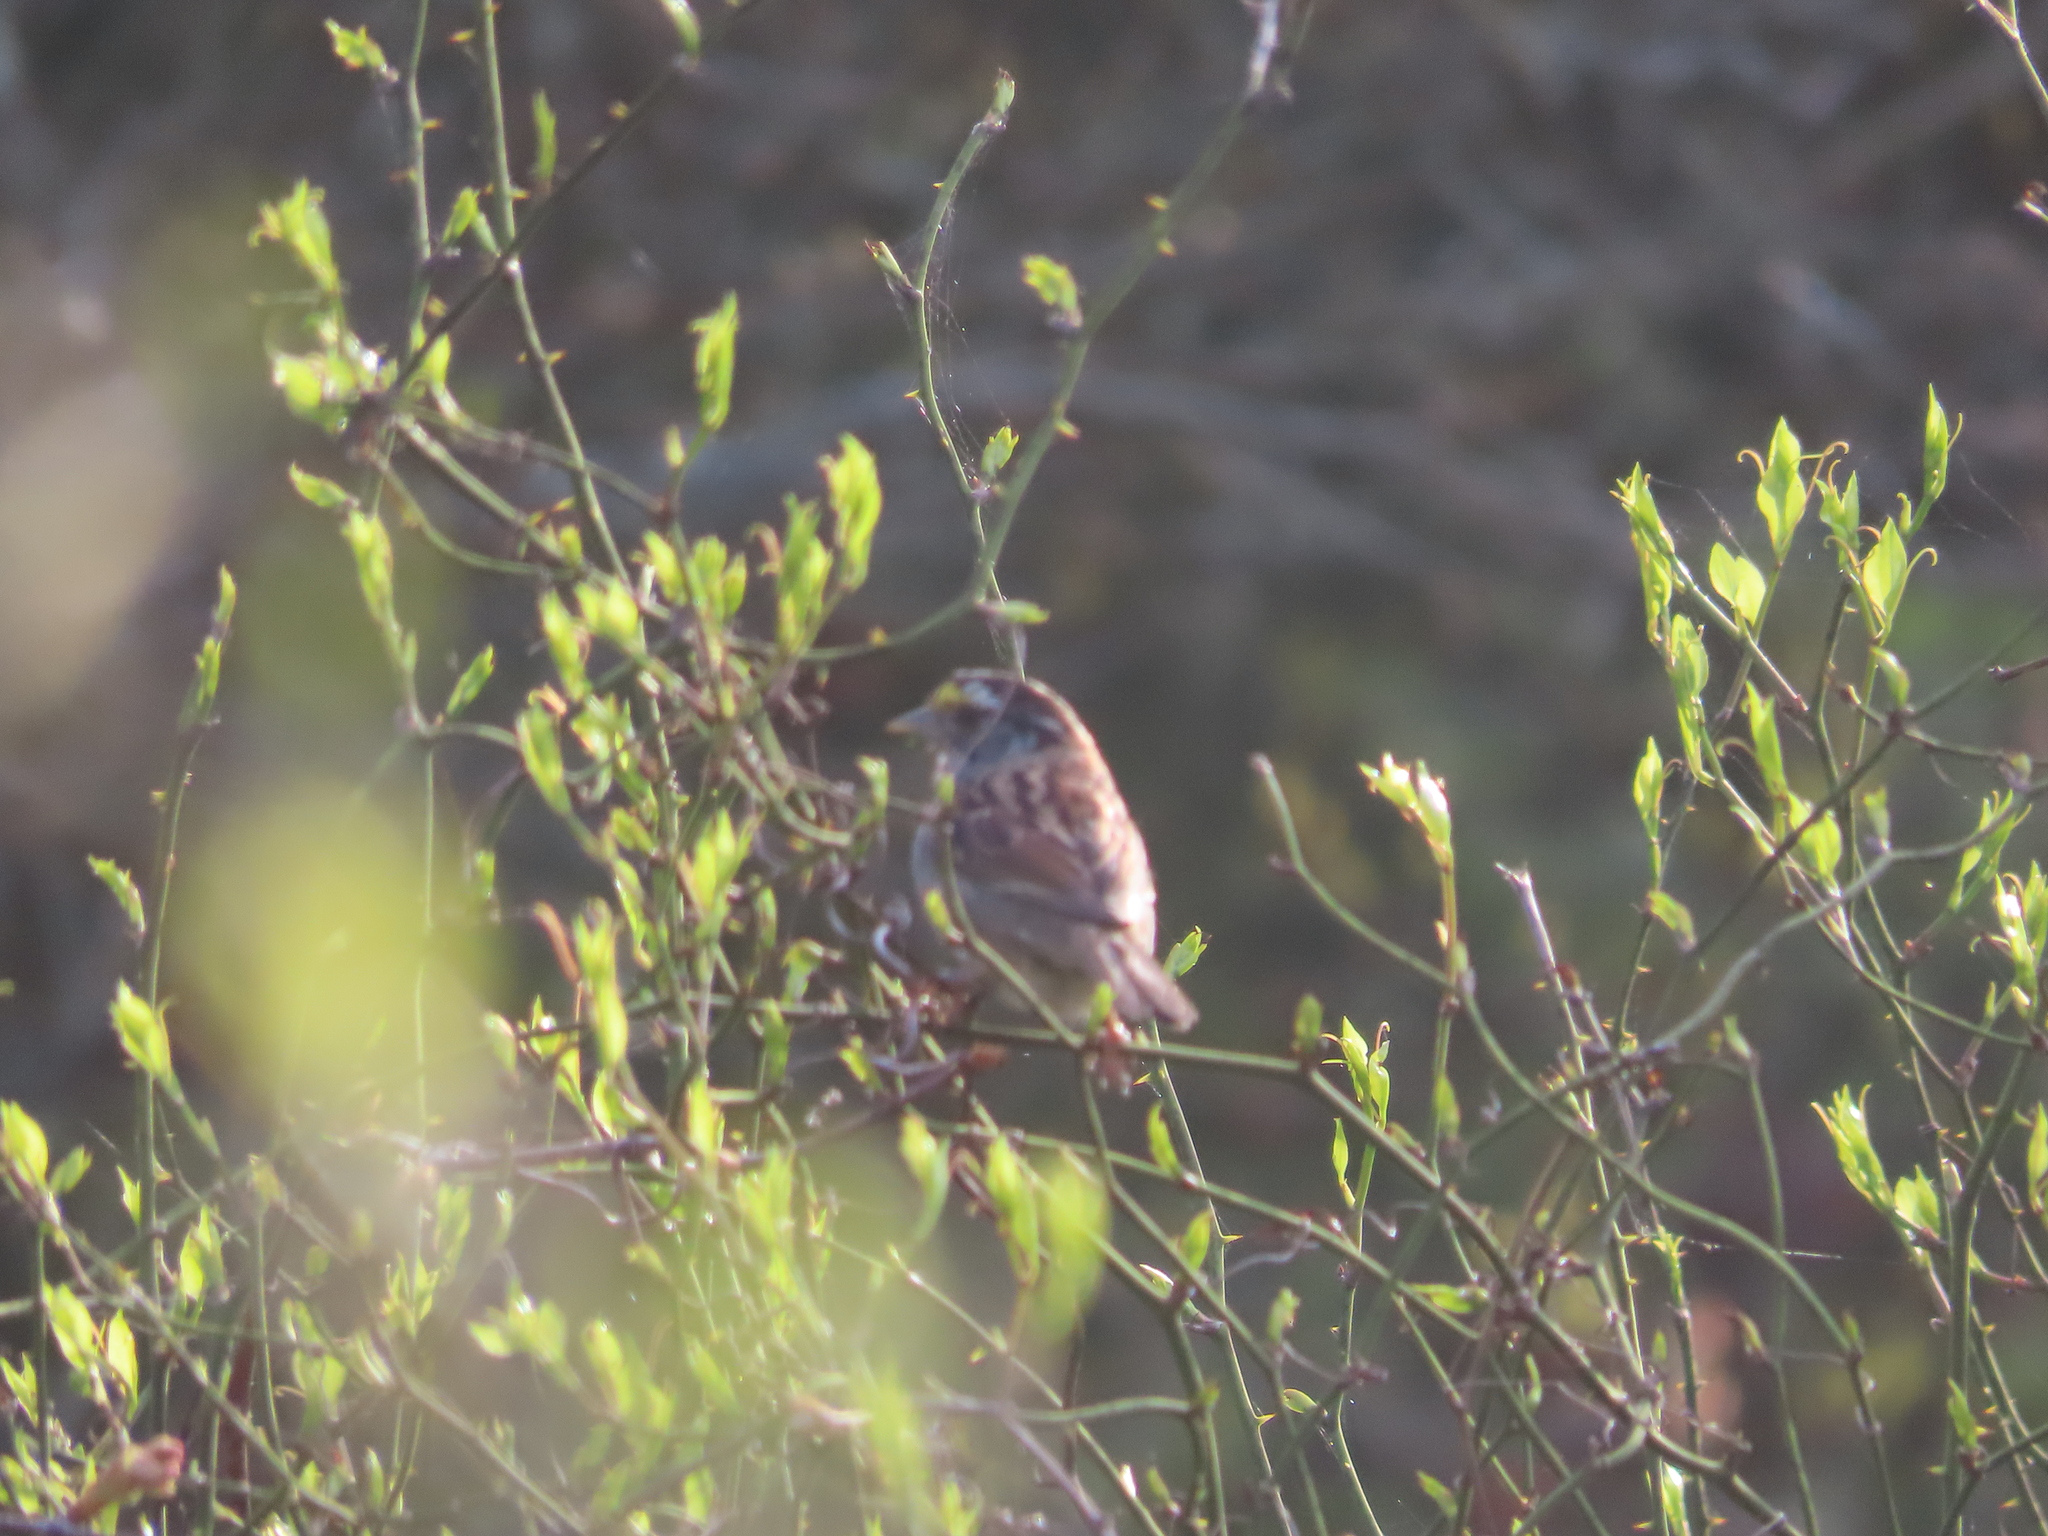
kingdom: Animalia
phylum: Chordata
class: Aves
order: Passeriformes
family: Passerellidae
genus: Zonotrichia
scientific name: Zonotrichia albicollis
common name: White-throated sparrow
